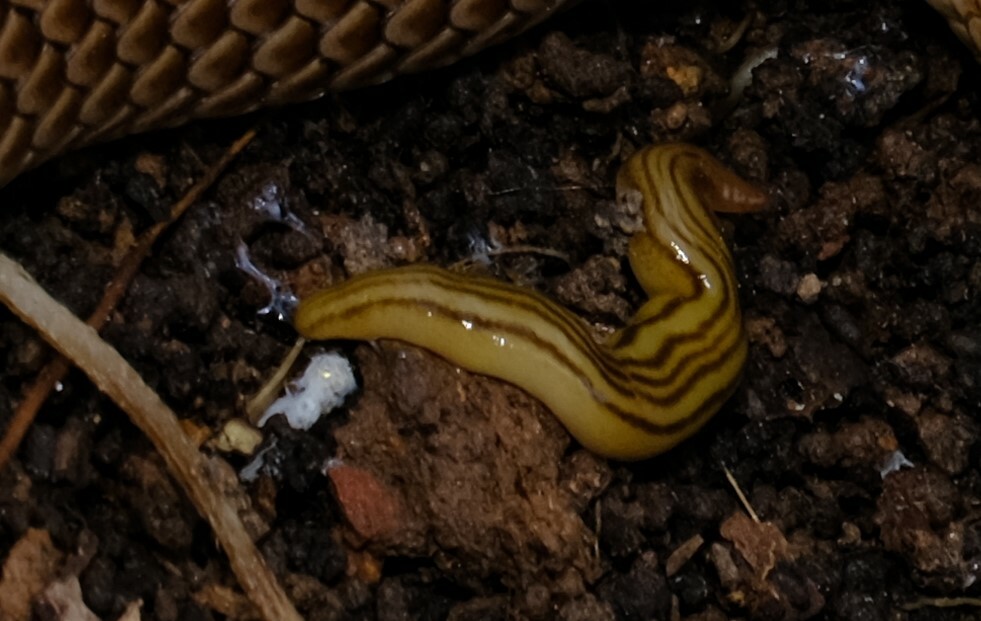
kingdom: Animalia
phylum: Platyhelminthes
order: Tricladida
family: Geoplanidae
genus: Fletchamia
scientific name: Fletchamia quinquelineata
